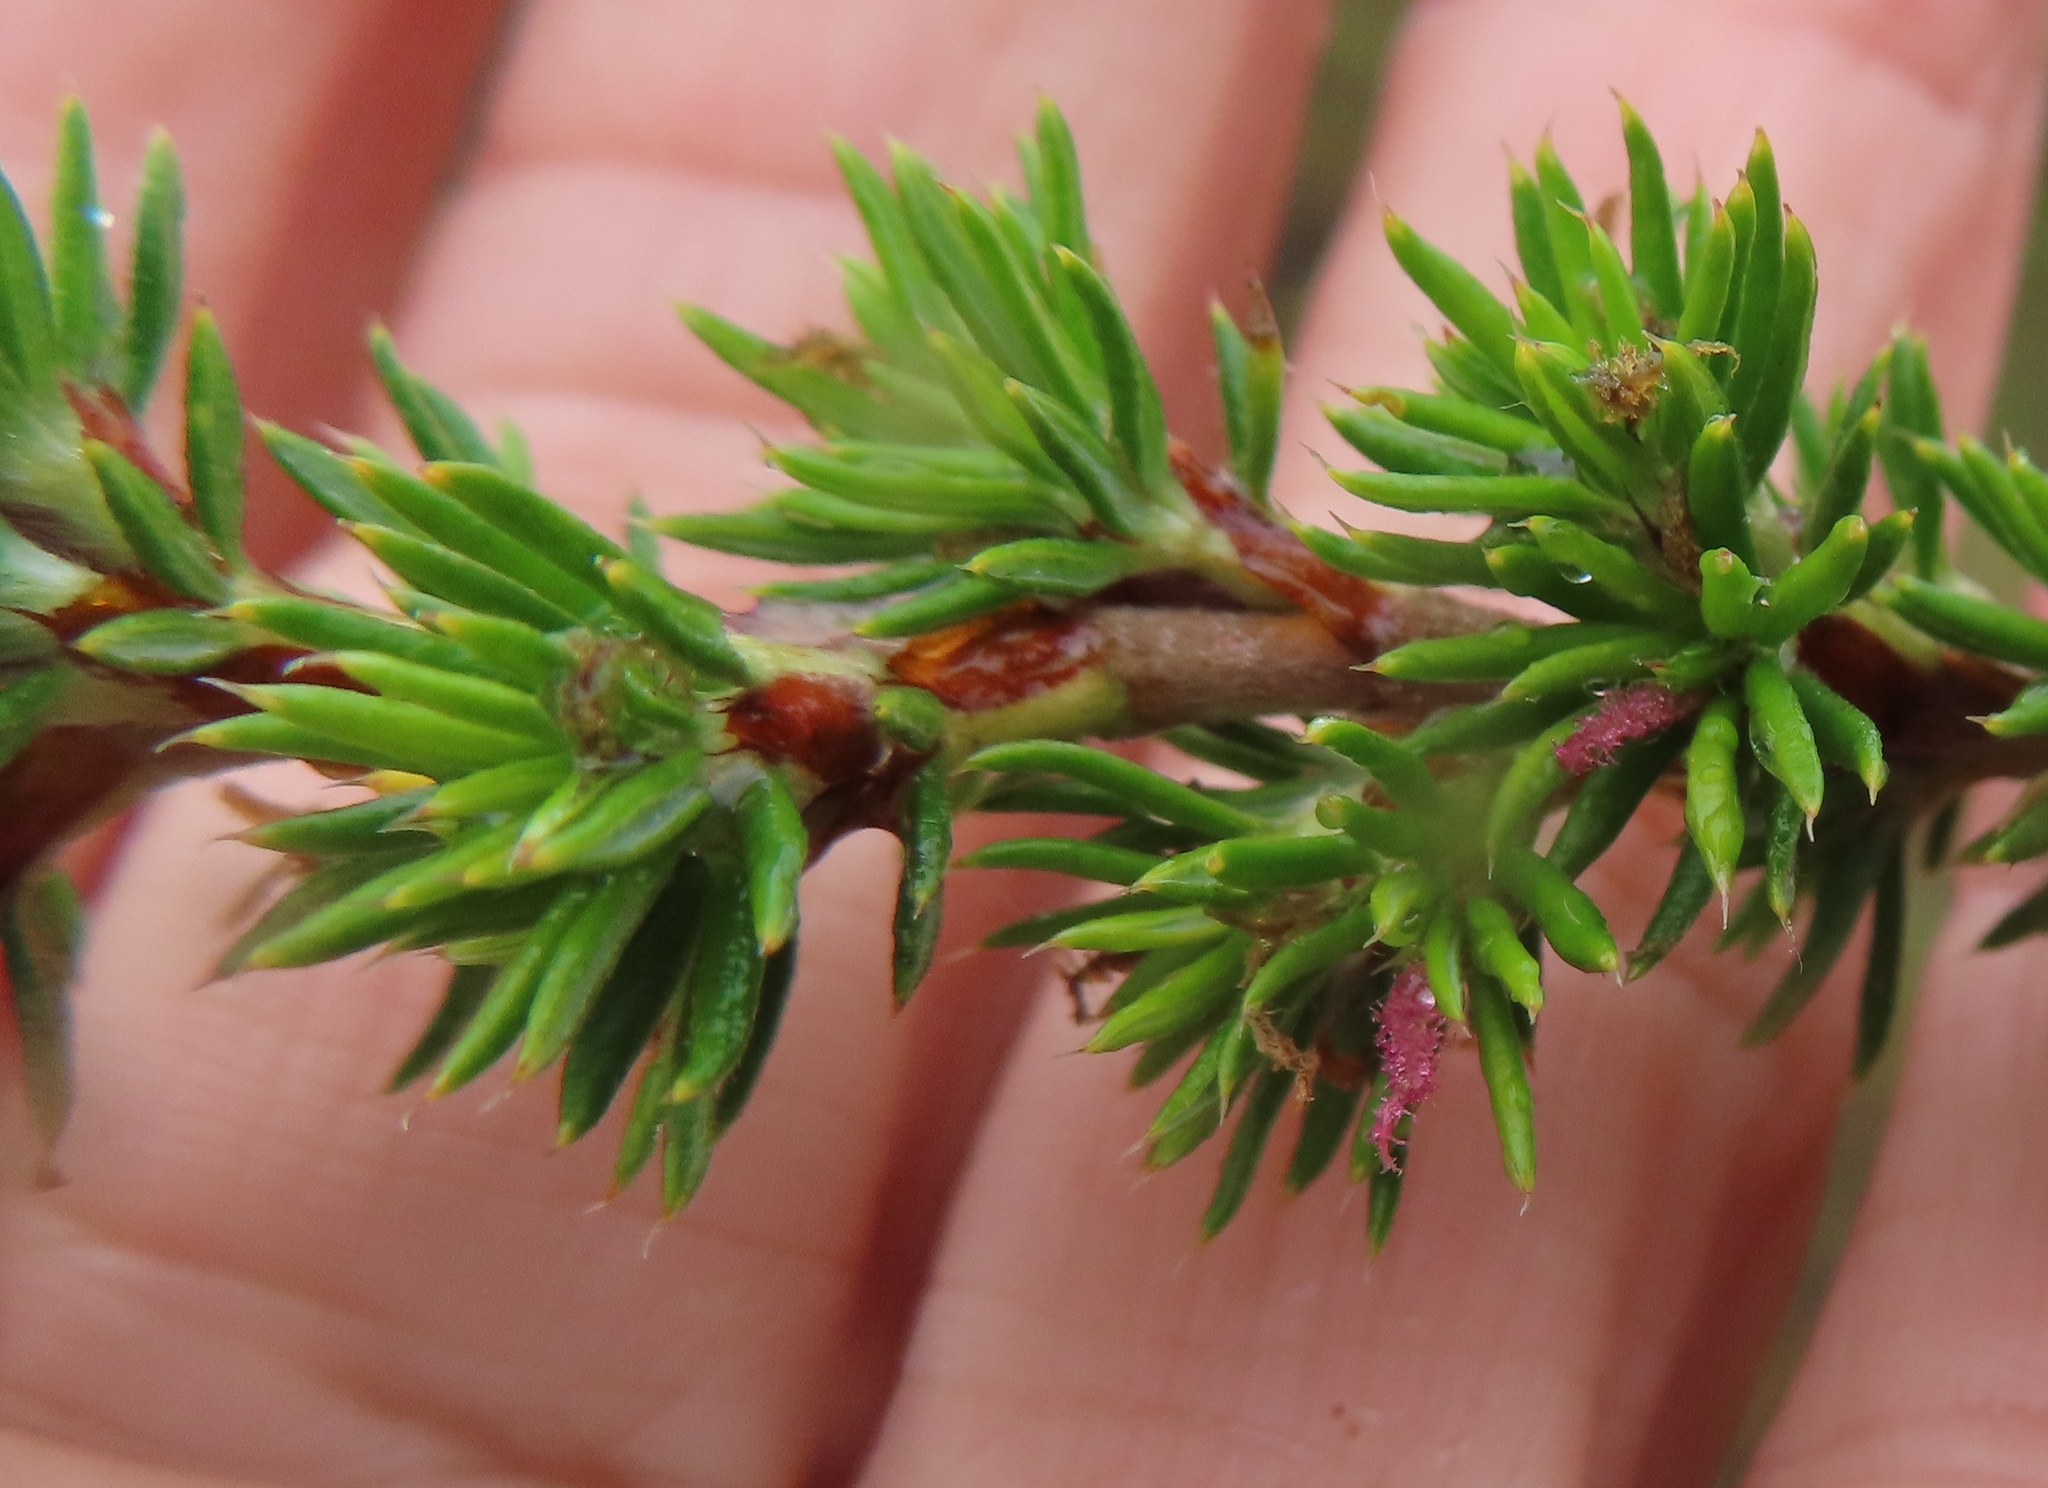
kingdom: Plantae
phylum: Tracheophyta
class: Magnoliopsida
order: Rosales
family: Rosaceae
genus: Cliffortia
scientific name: Cliffortia stricta
